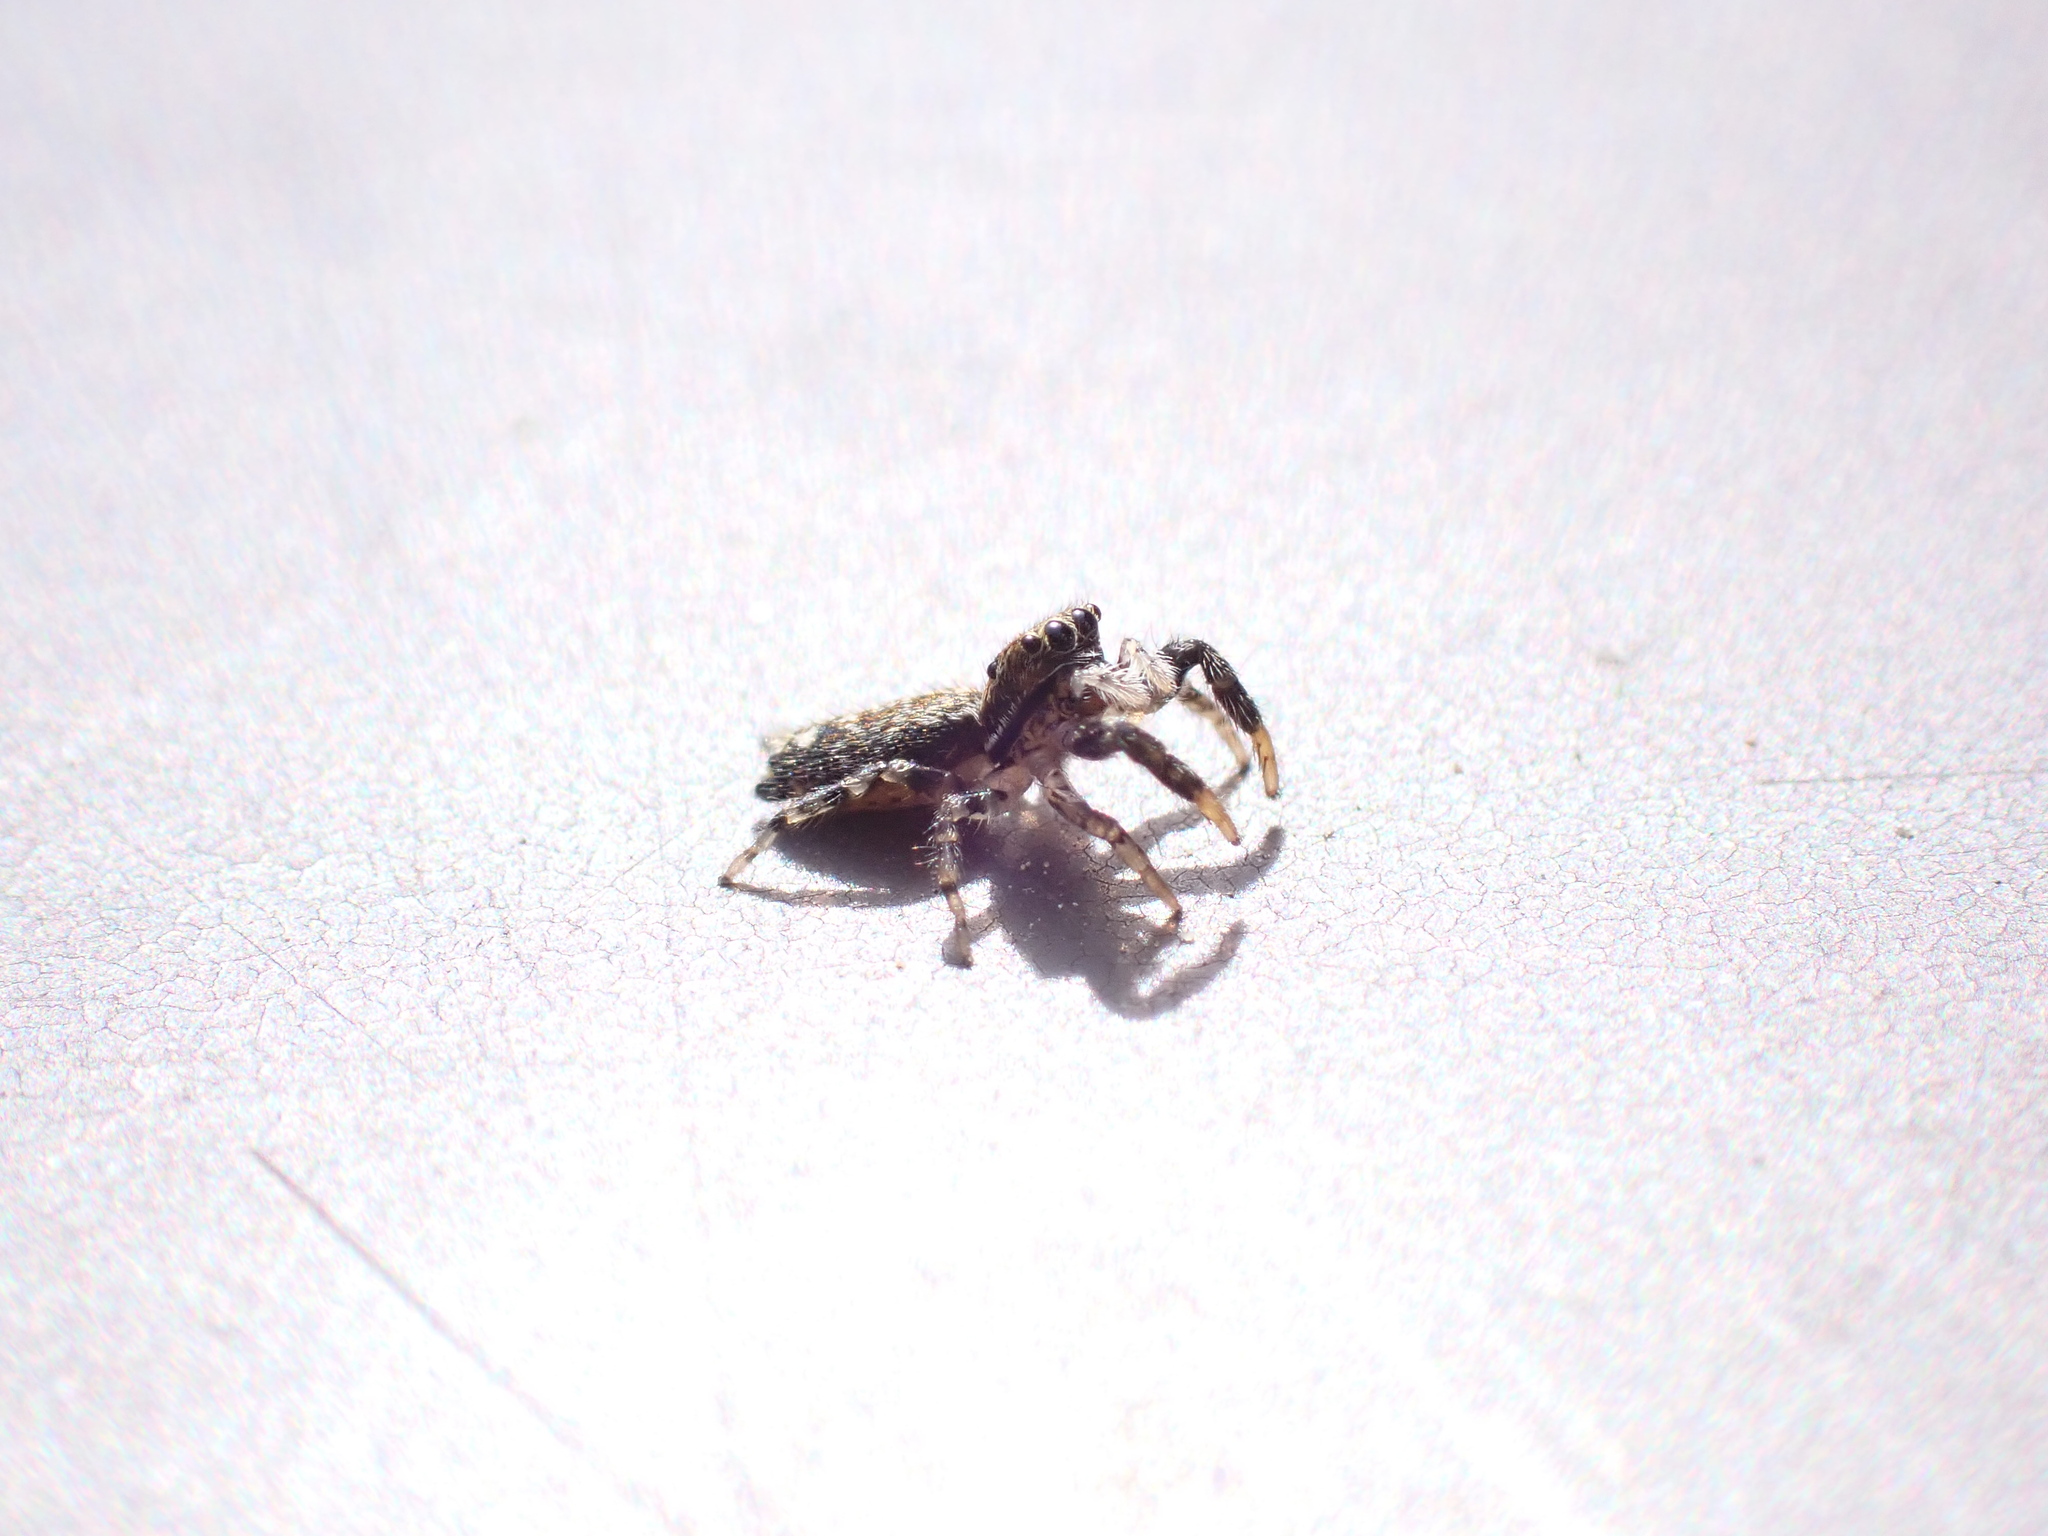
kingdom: Animalia
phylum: Arthropoda
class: Arachnida
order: Araneae
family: Salticidae
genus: Marpissa
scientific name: Marpissa muscosa
